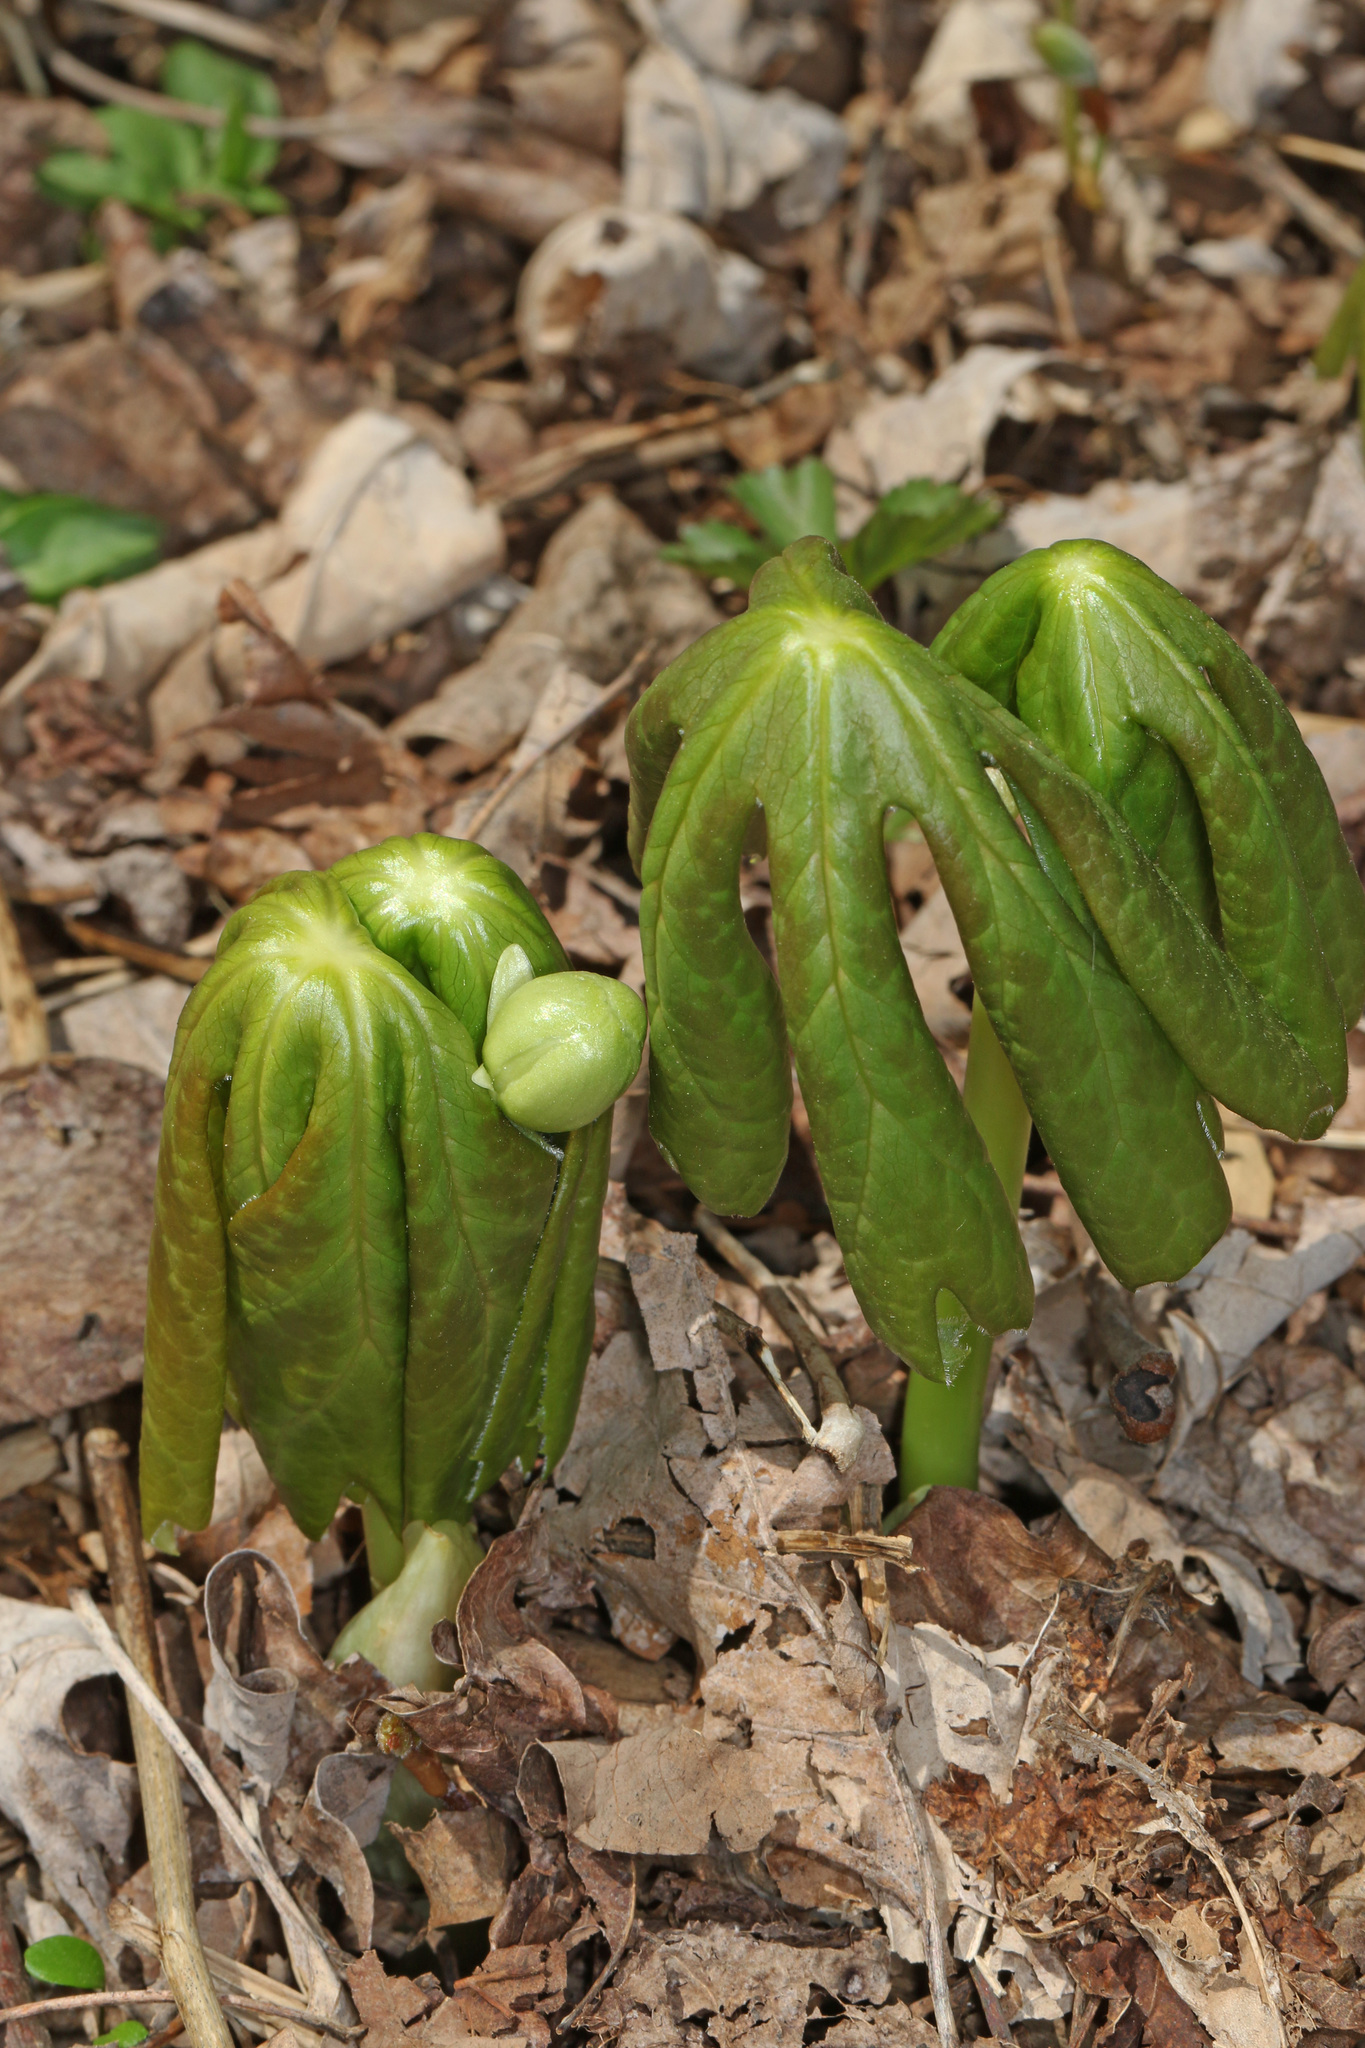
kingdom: Plantae
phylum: Tracheophyta
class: Magnoliopsida
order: Ranunculales
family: Berberidaceae
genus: Podophyllum
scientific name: Podophyllum peltatum
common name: Wild mandrake
